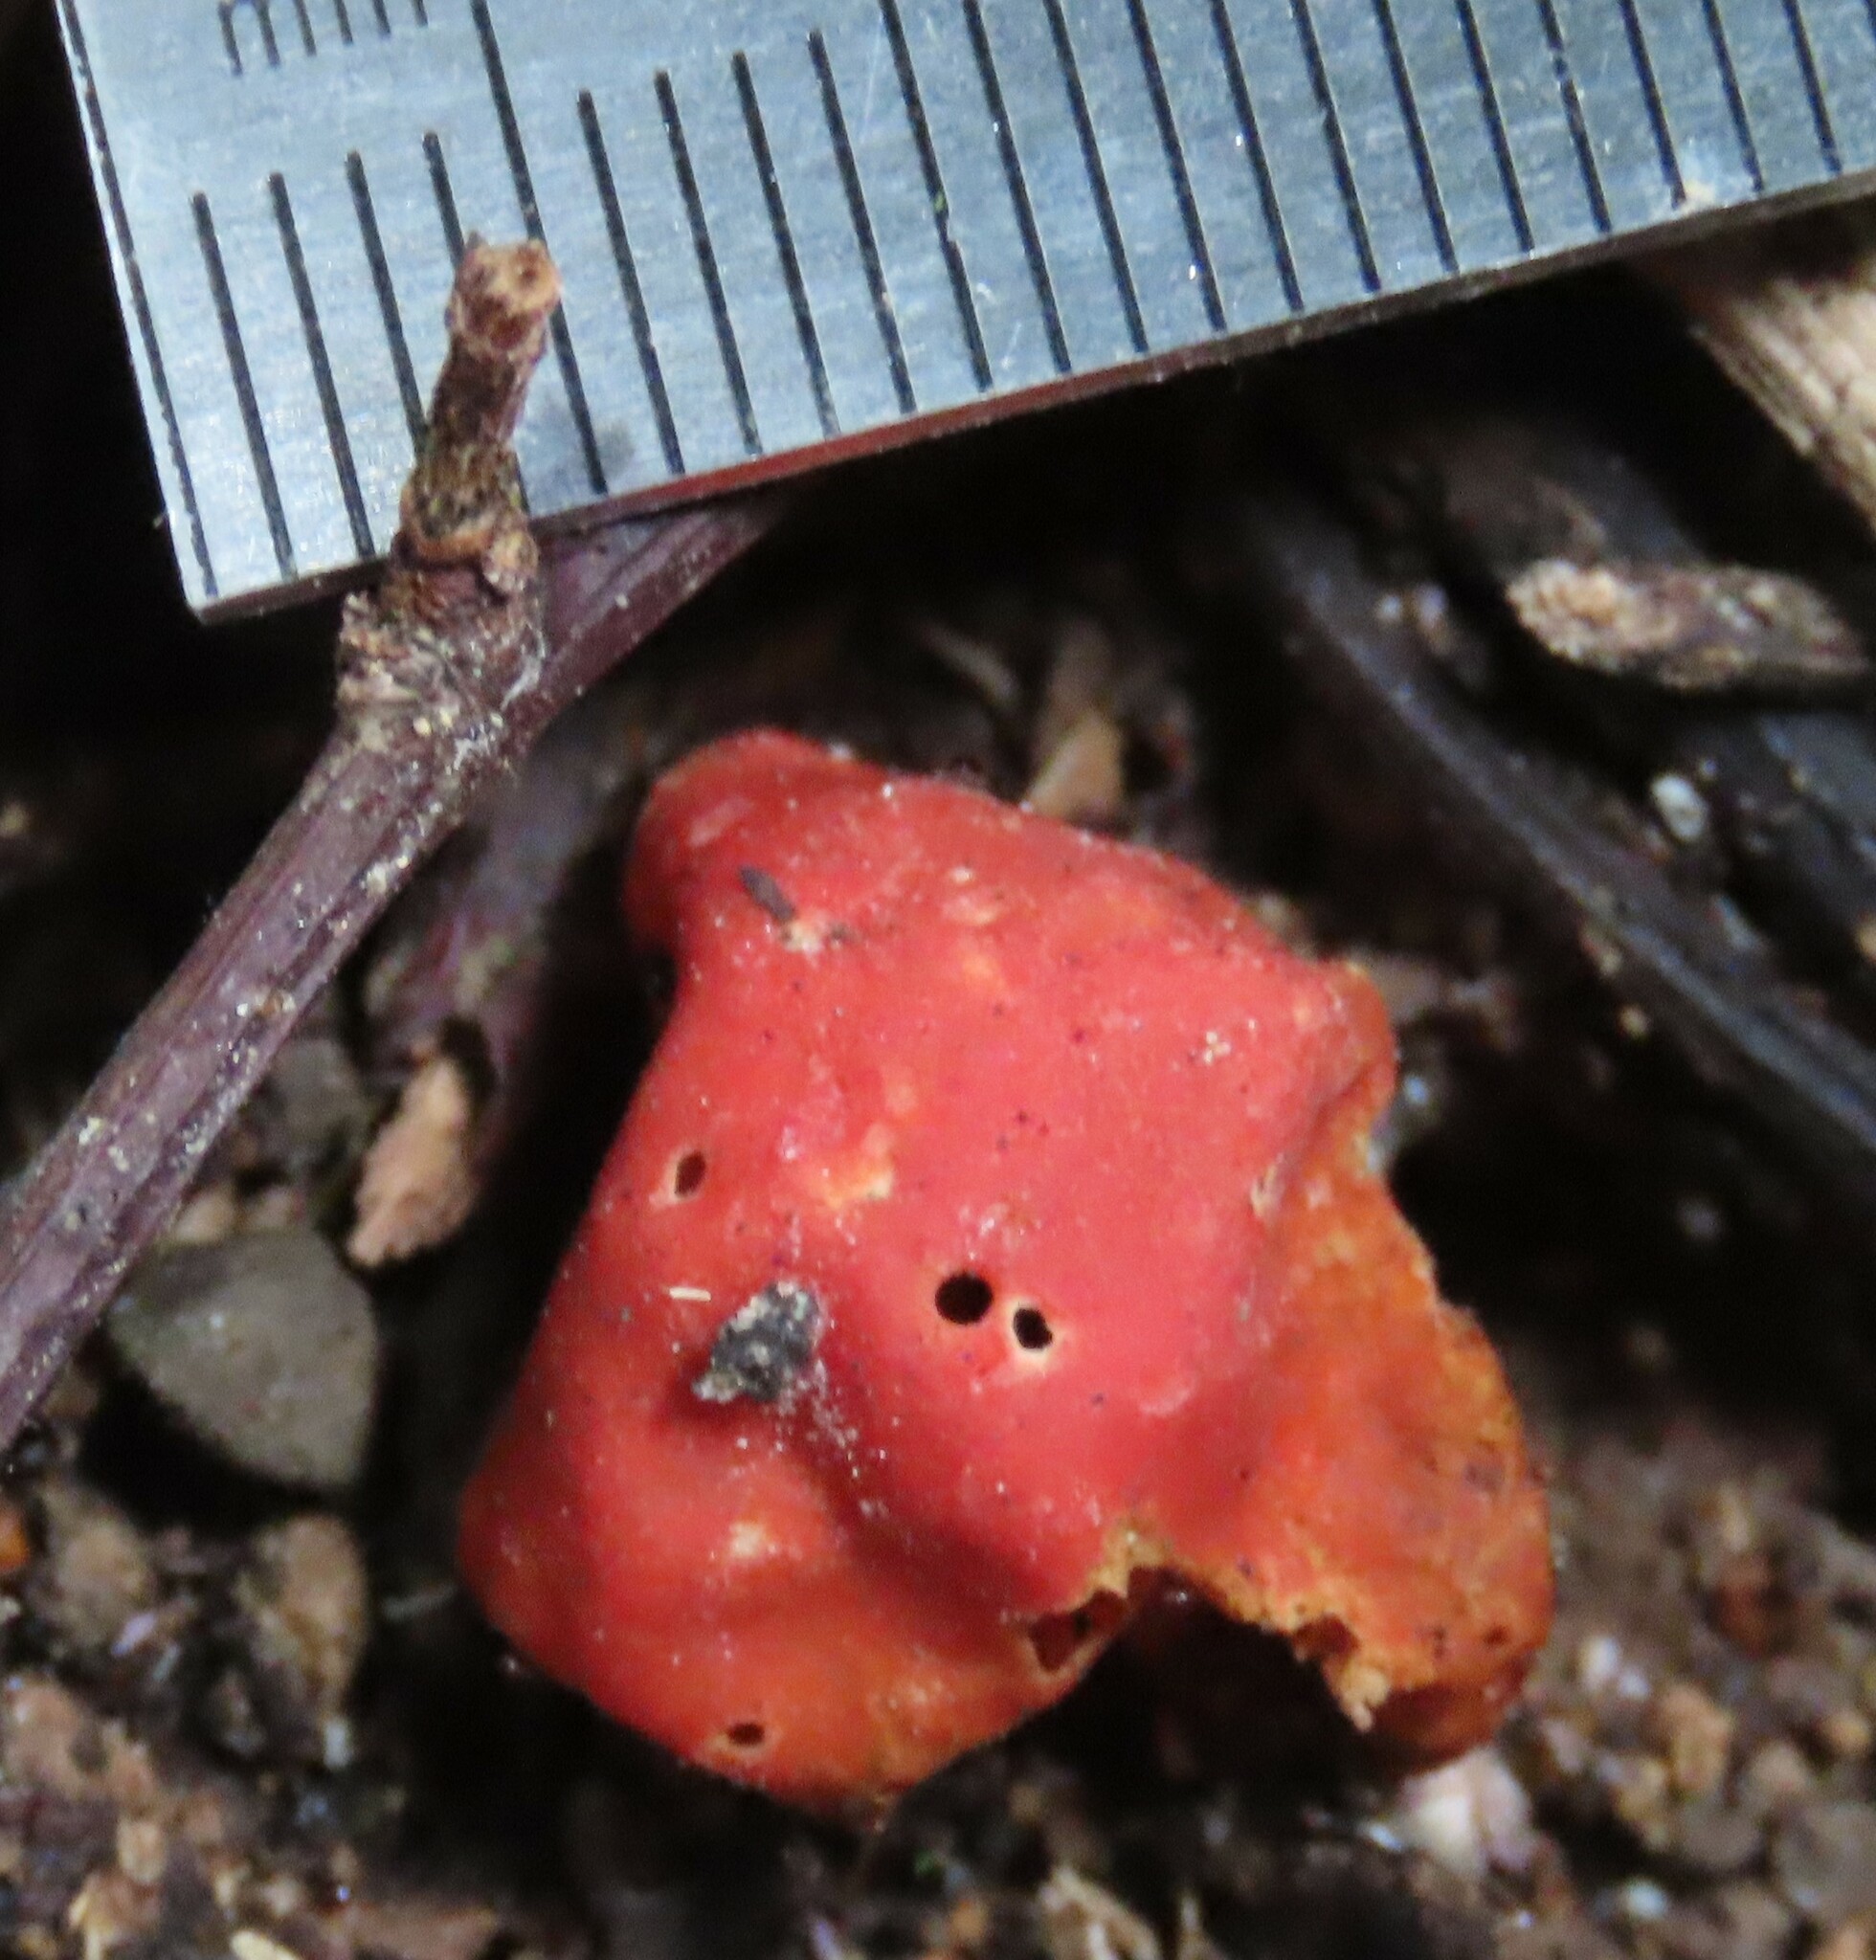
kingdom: Fungi
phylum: Ascomycota
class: Pezizomycetes
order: Pezizales
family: Pyronemataceae
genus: Paurocotylis
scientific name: Paurocotylis pila
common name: Scarlet berry truffle
